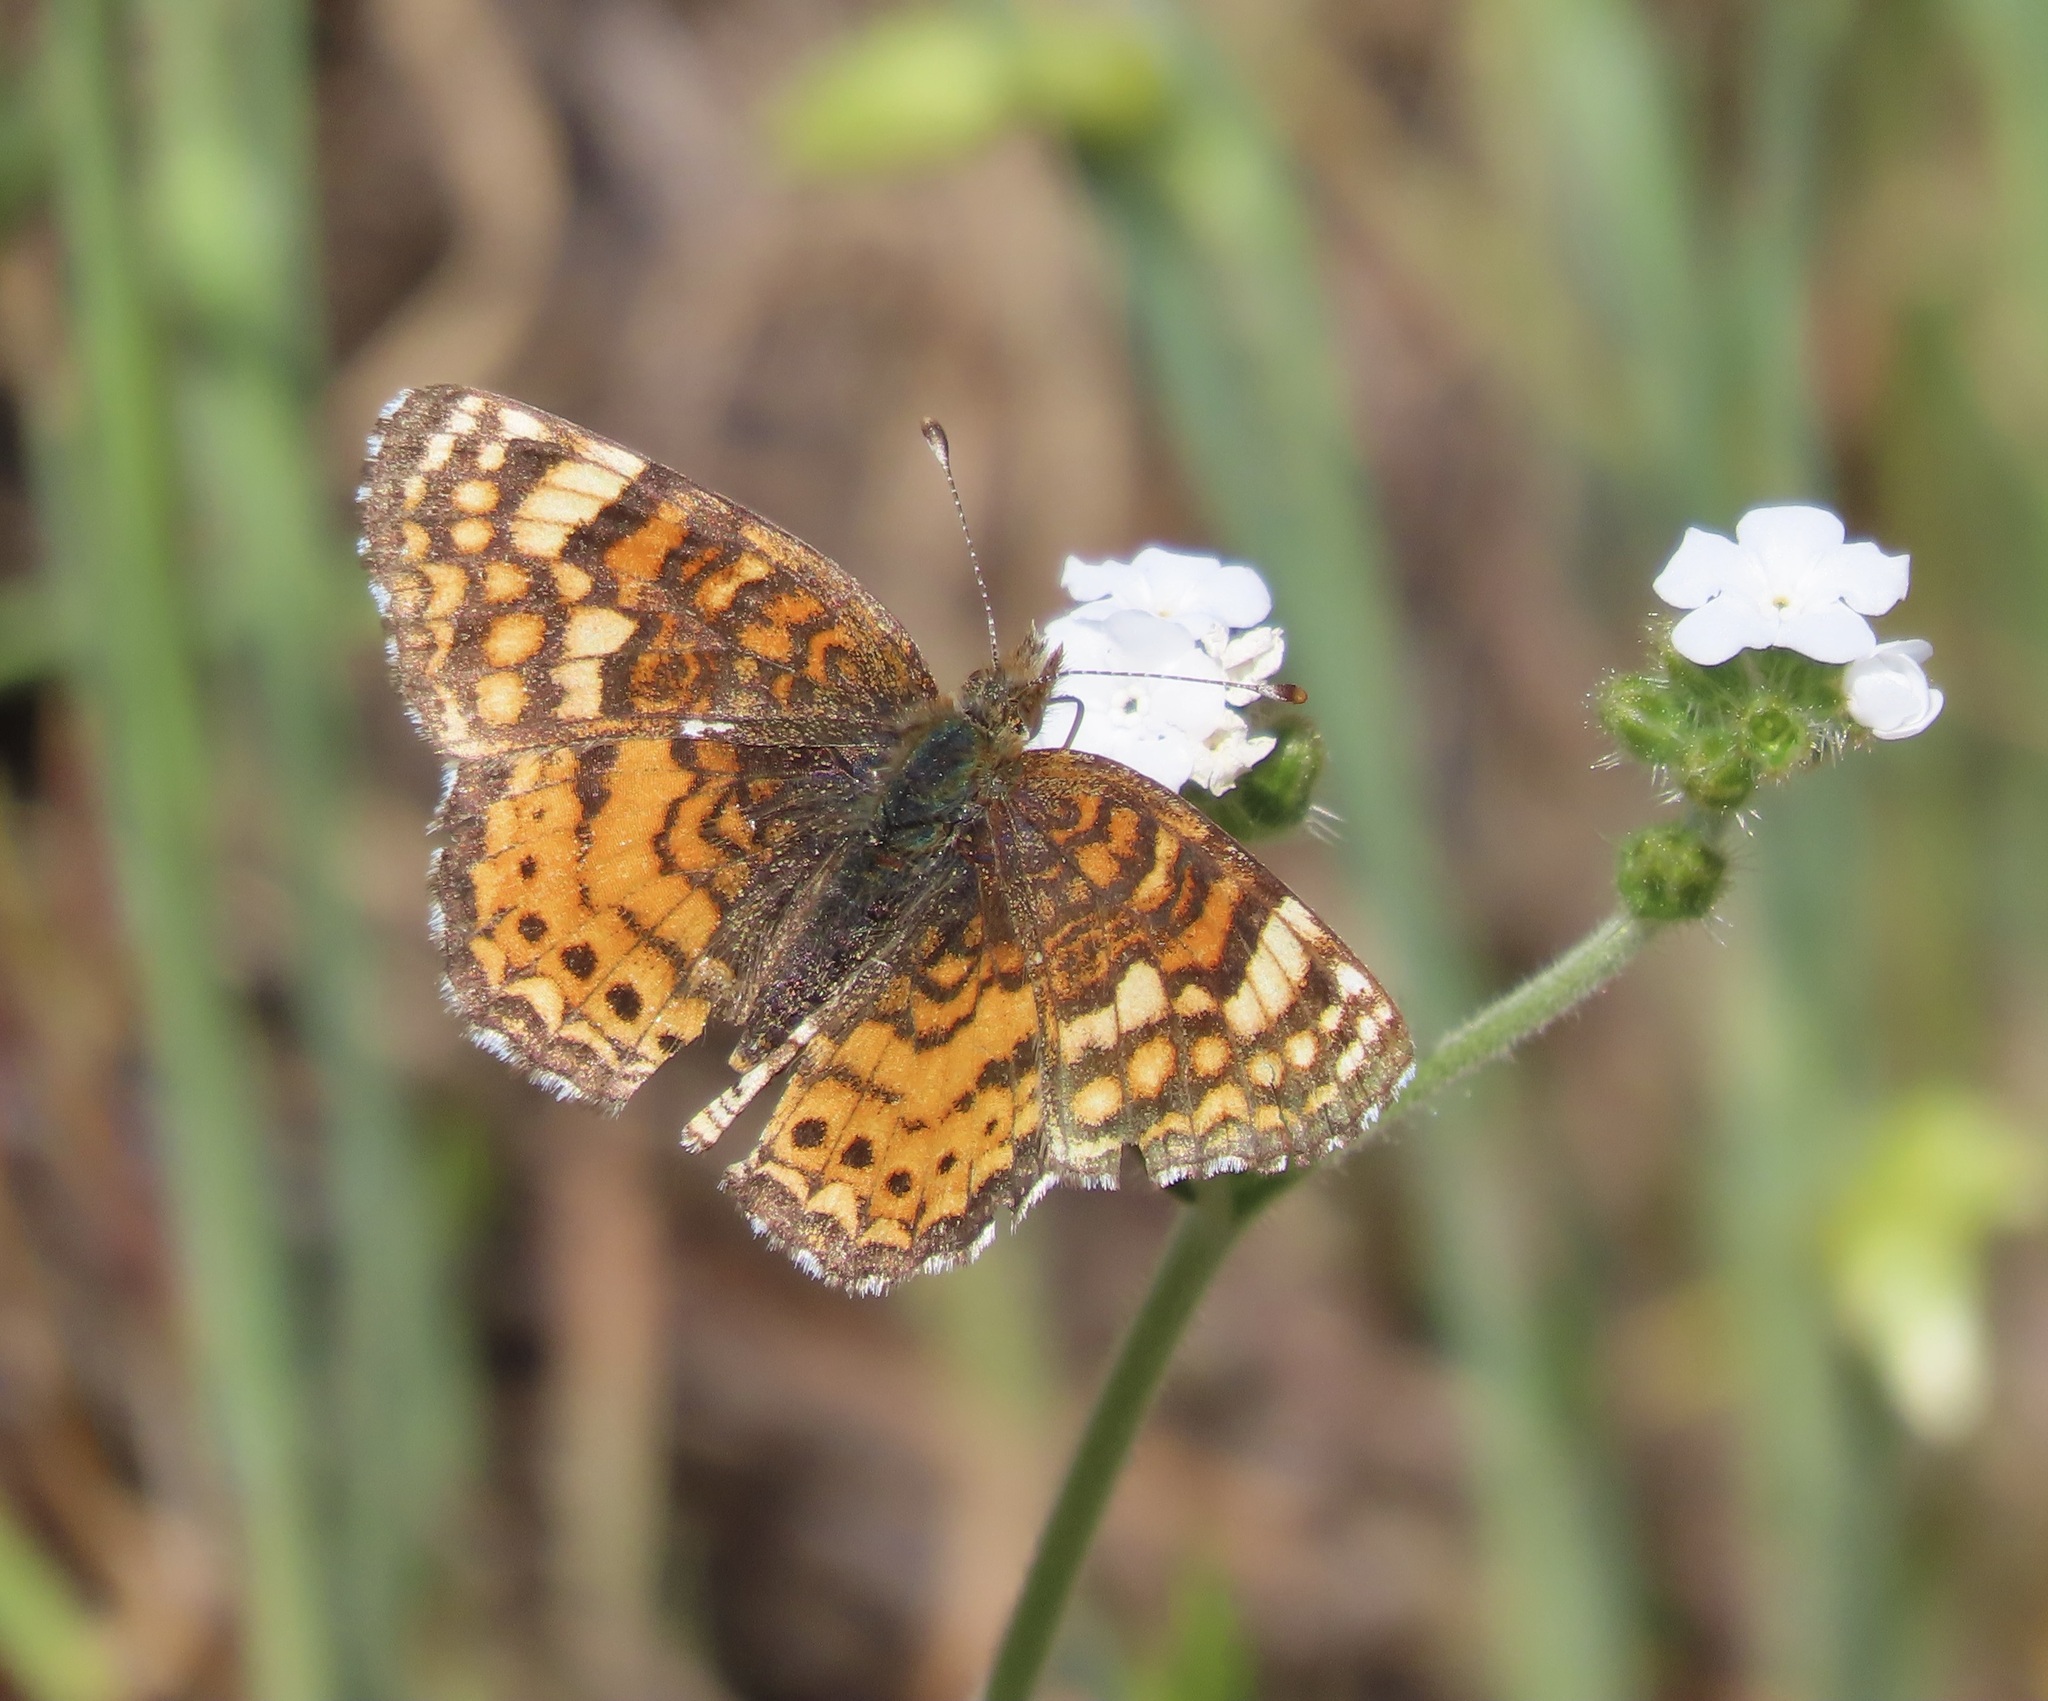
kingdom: Animalia
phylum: Arthropoda
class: Insecta
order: Lepidoptera
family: Nymphalidae
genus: Eresia
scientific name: Eresia aveyrona
